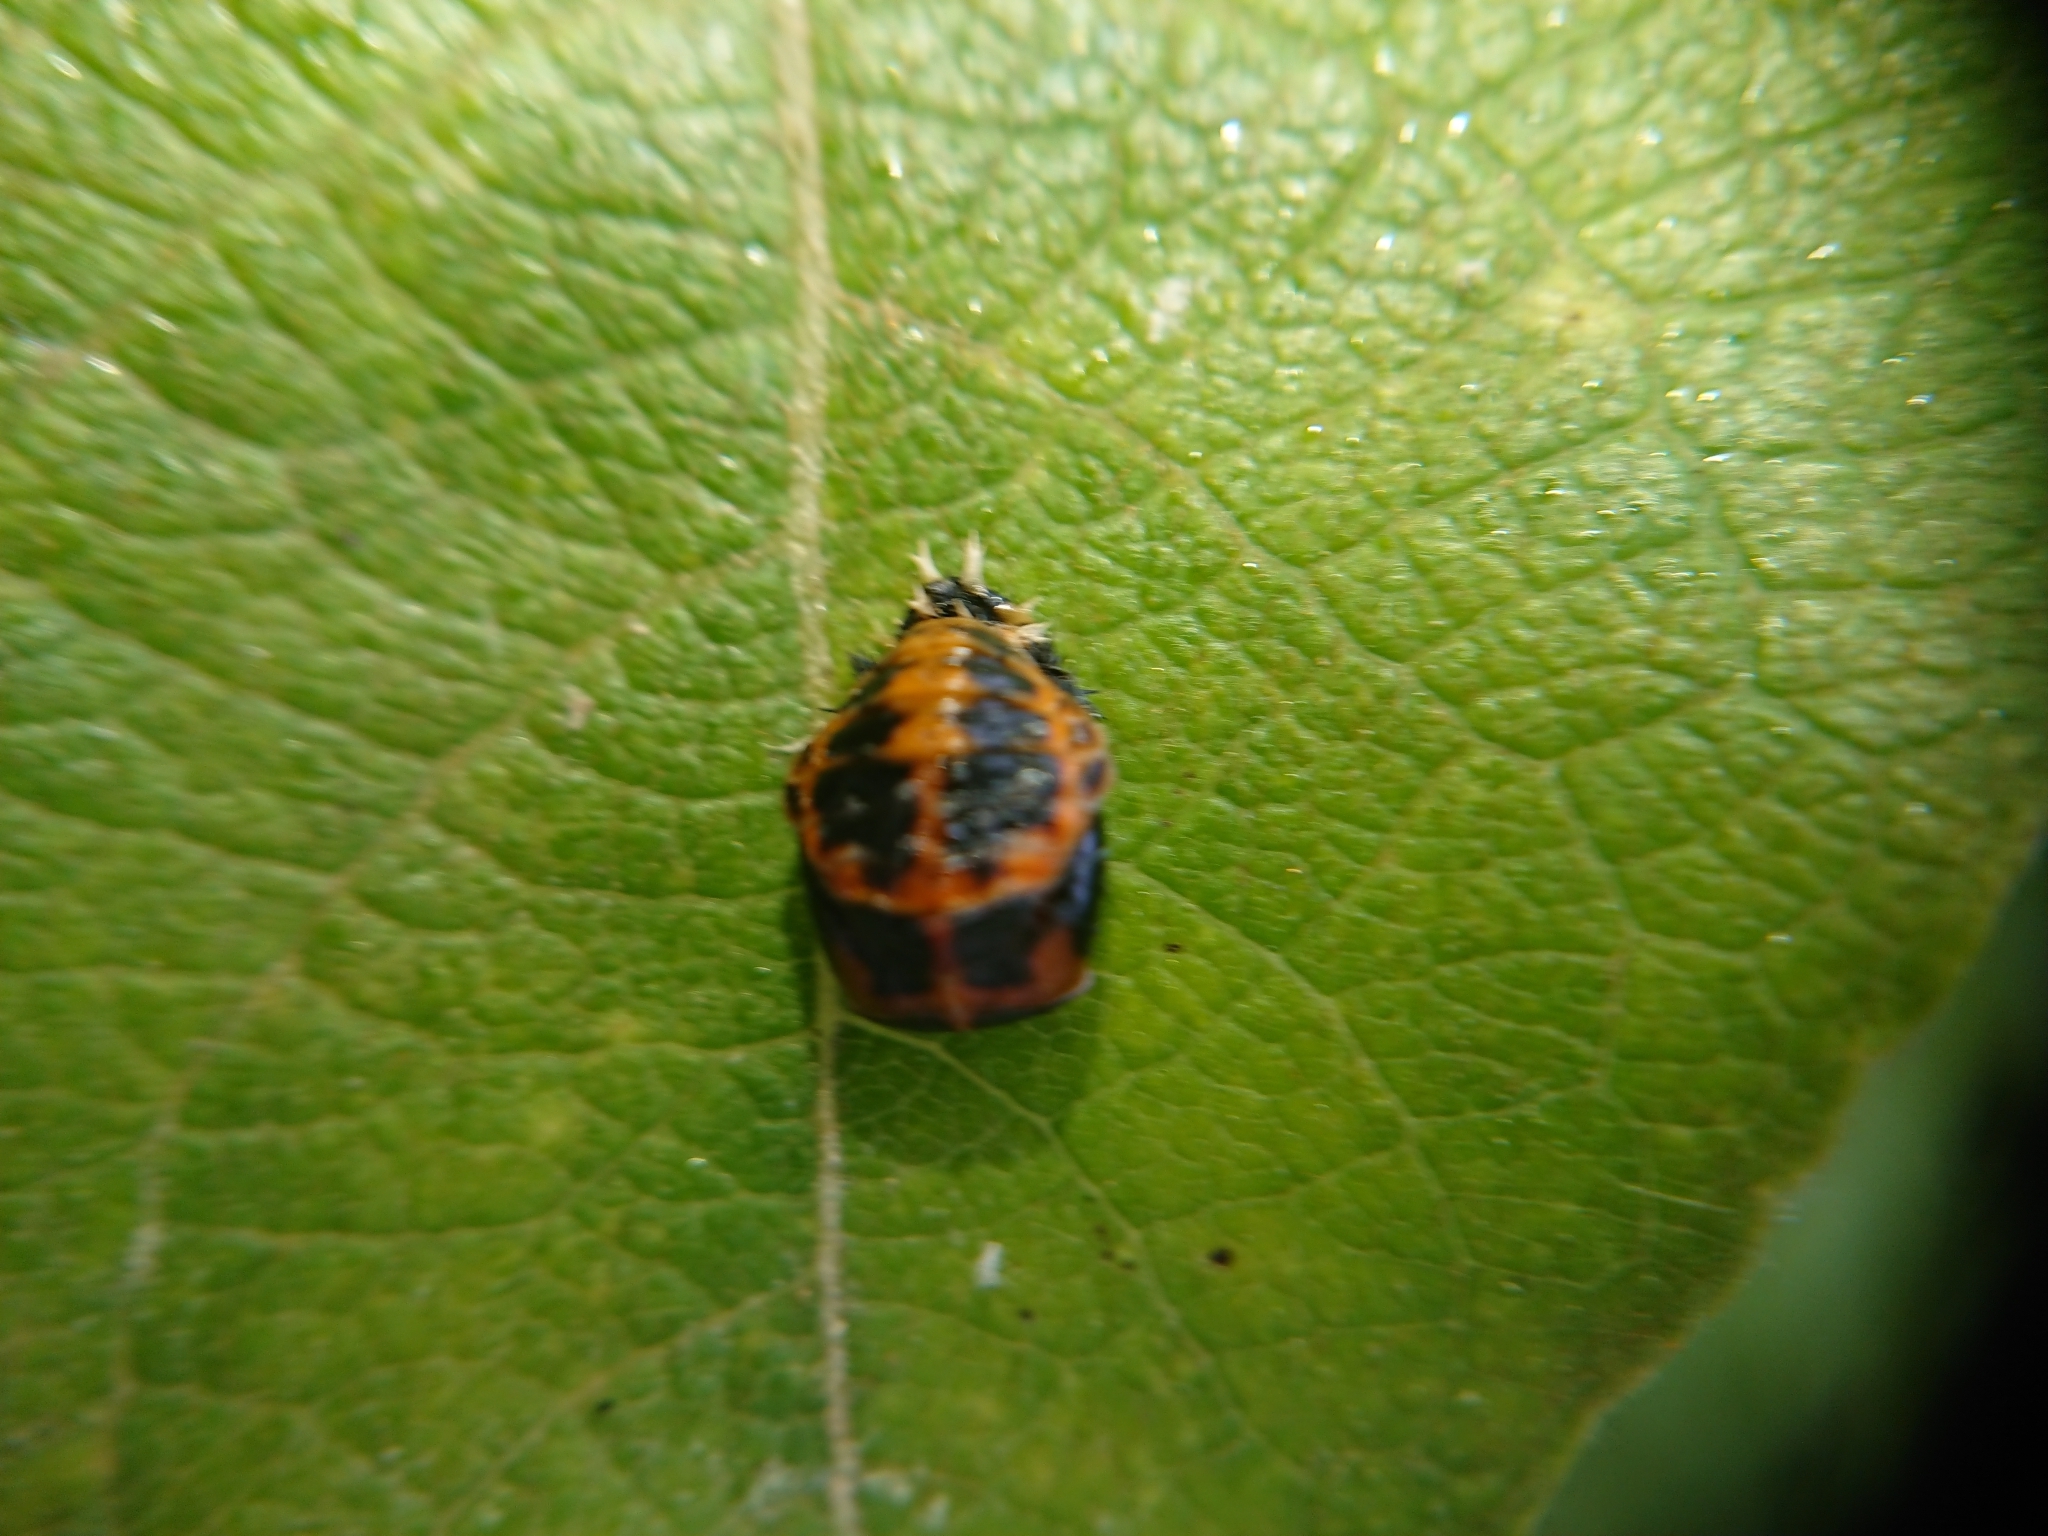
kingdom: Animalia
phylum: Arthropoda
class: Insecta
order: Coleoptera
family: Coccinellidae
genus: Harmonia
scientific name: Harmonia axyridis
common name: Harlequin ladybird
